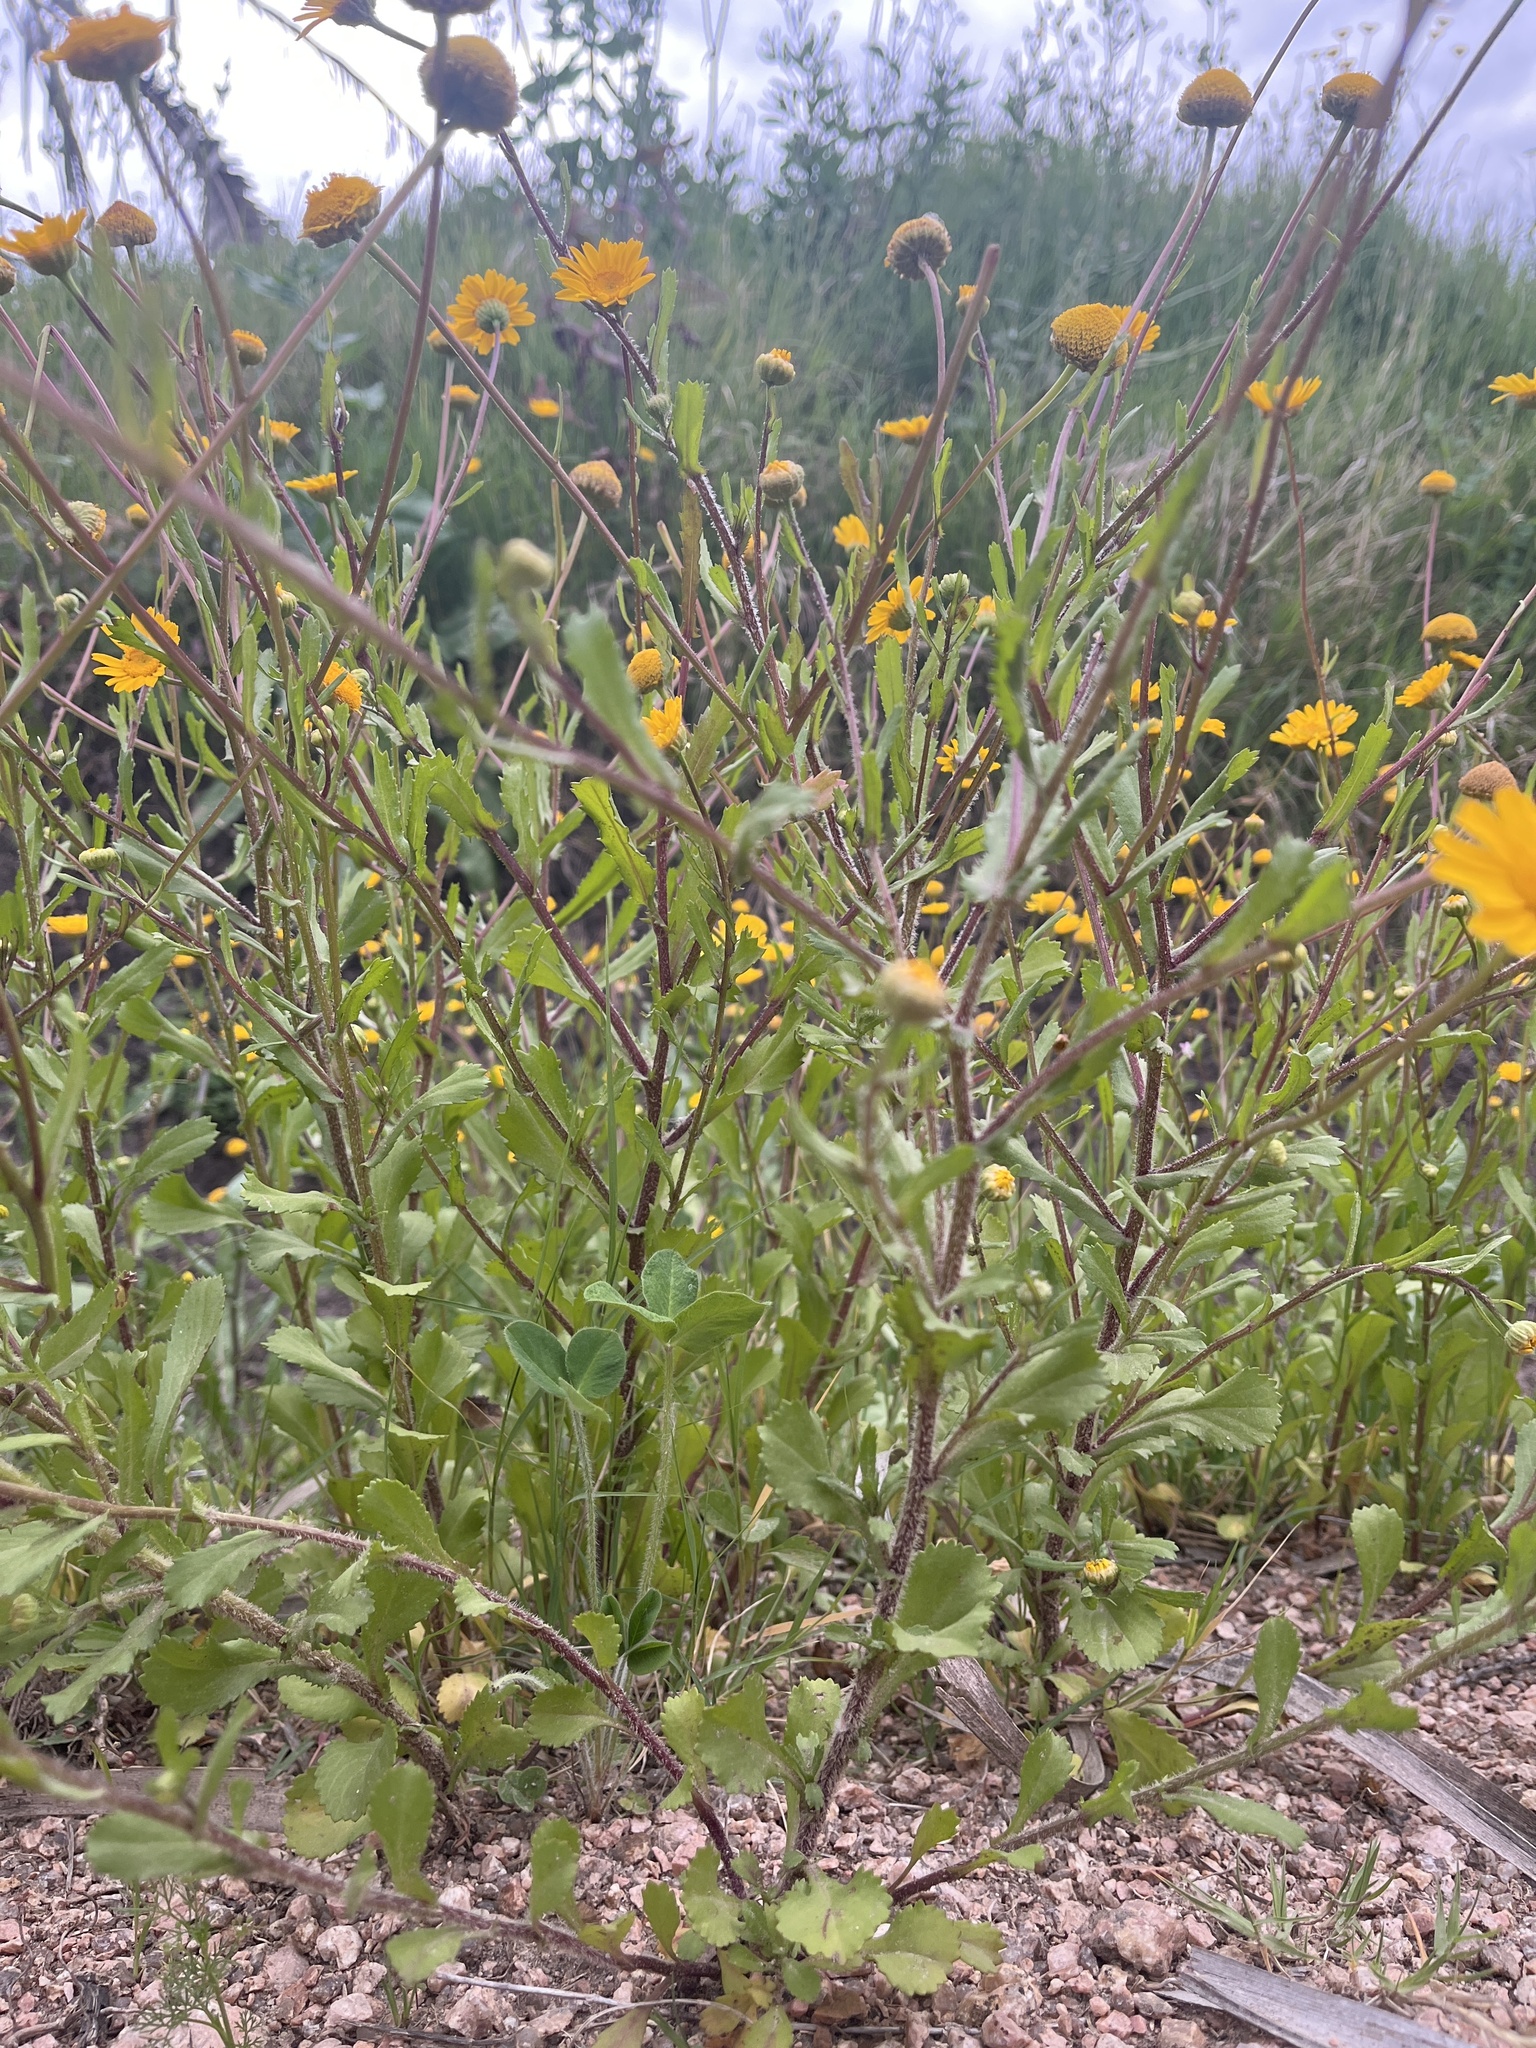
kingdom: Plantae
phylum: Tracheophyta
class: Magnoliopsida
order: Asterales
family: Asteraceae
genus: Coleostephus
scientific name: Coleostephus myconis
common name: Mediterranean marigold
